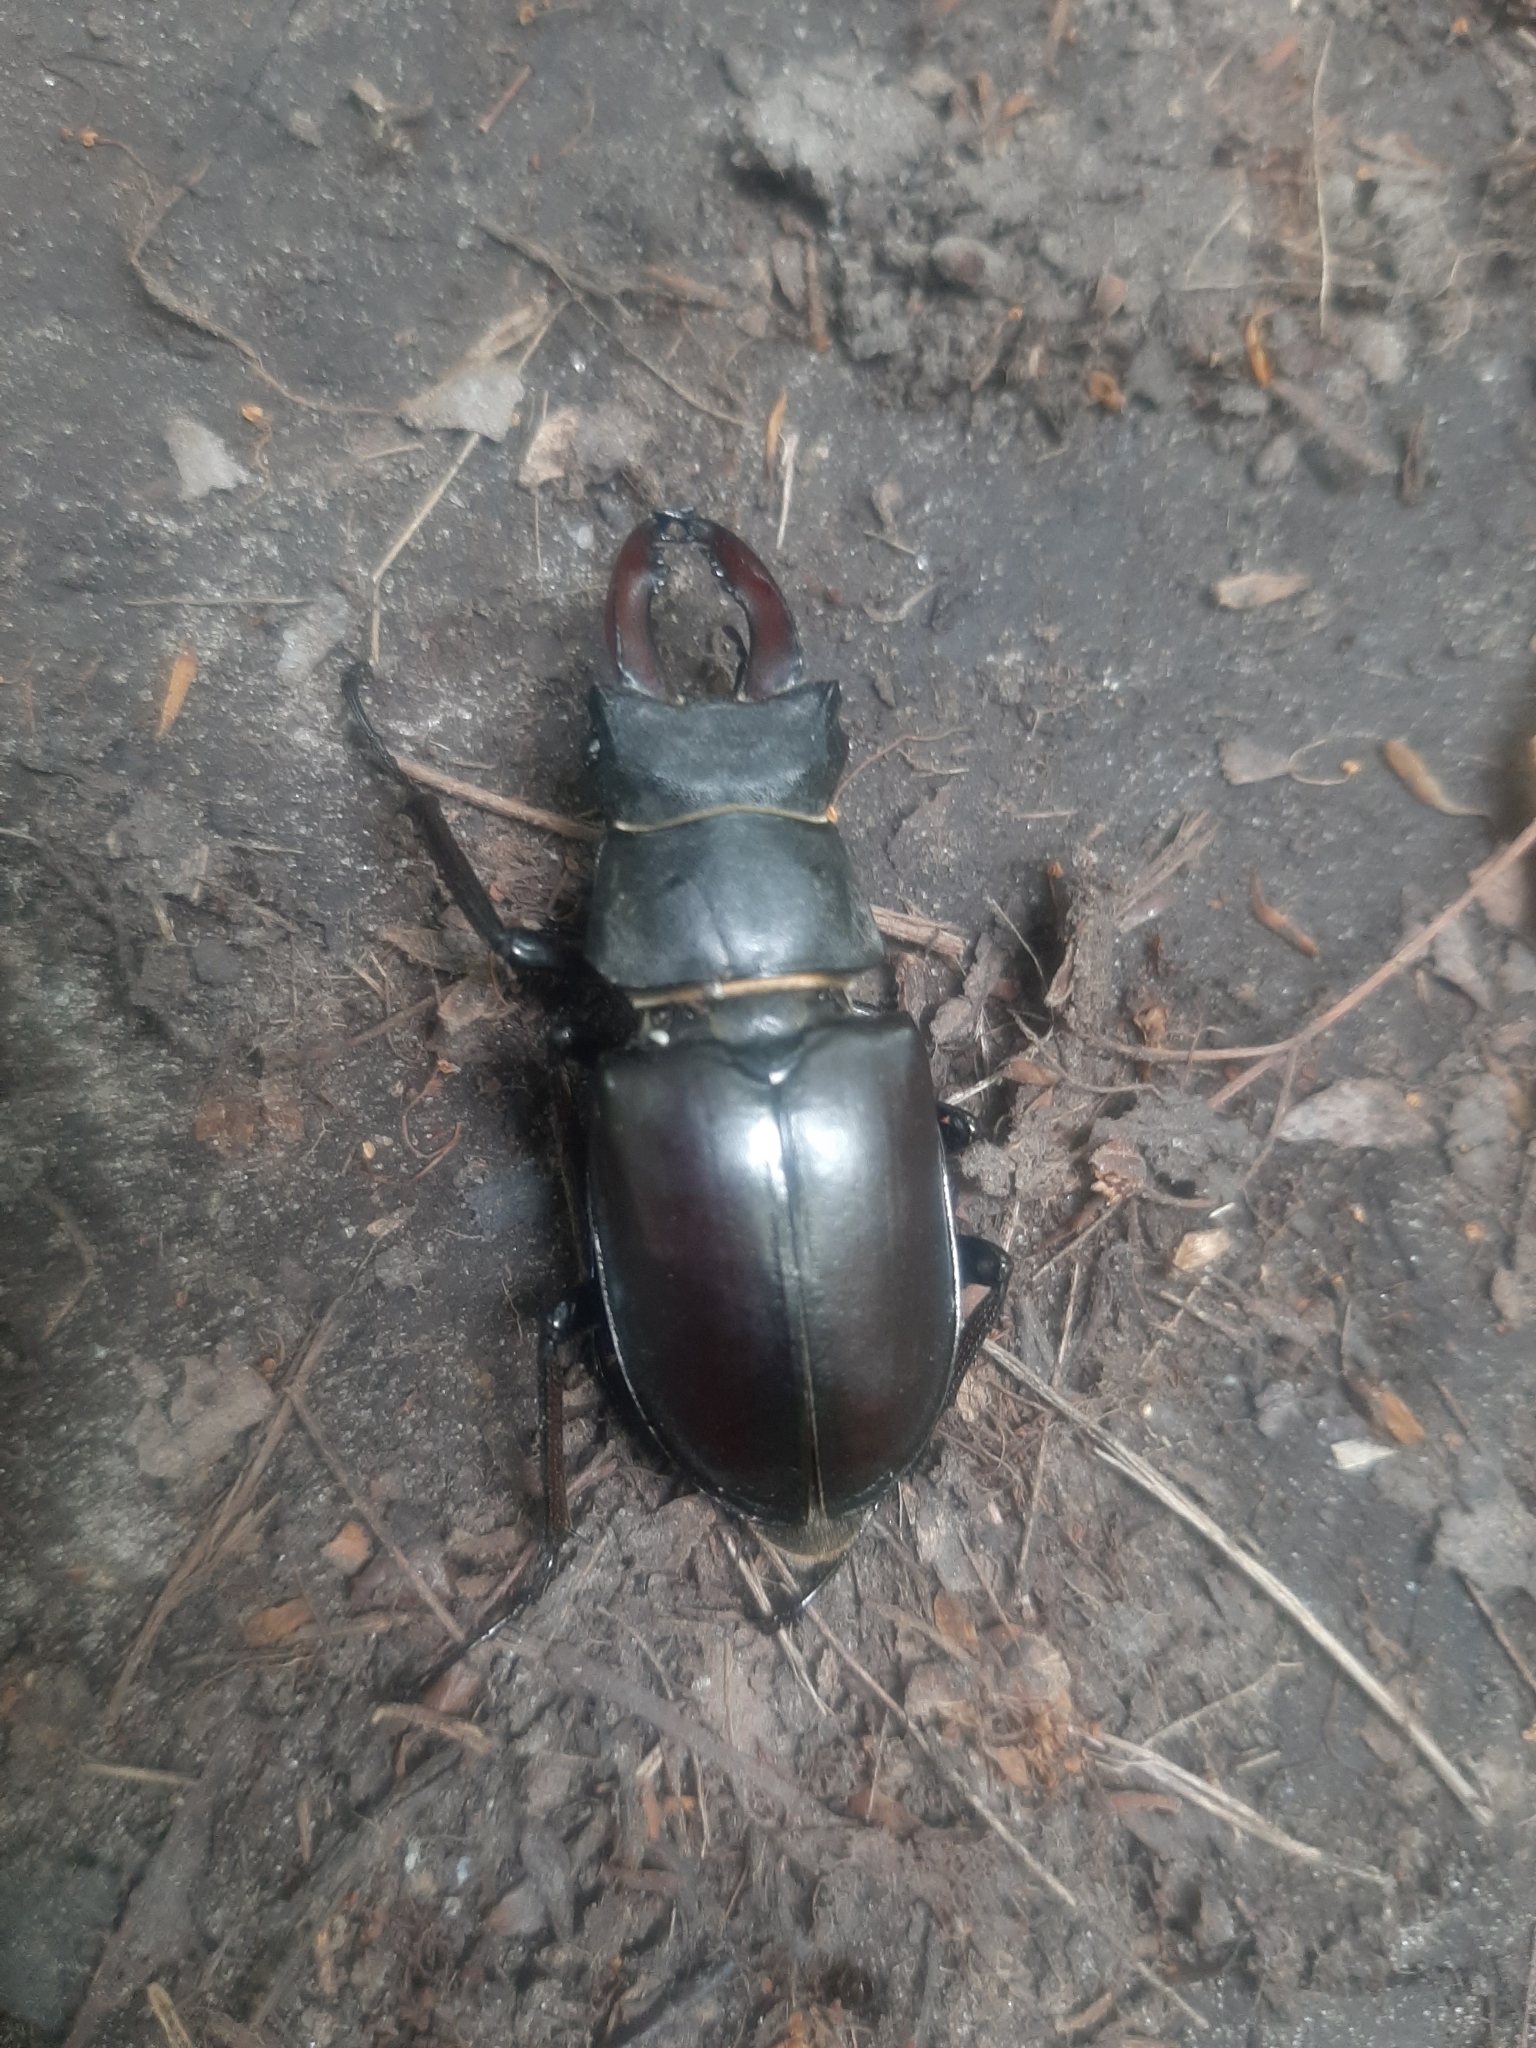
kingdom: Animalia
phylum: Arthropoda
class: Insecta
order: Coleoptera
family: Lucanidae
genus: Lucanus
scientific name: Lucanus cervus
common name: Stag beetle
